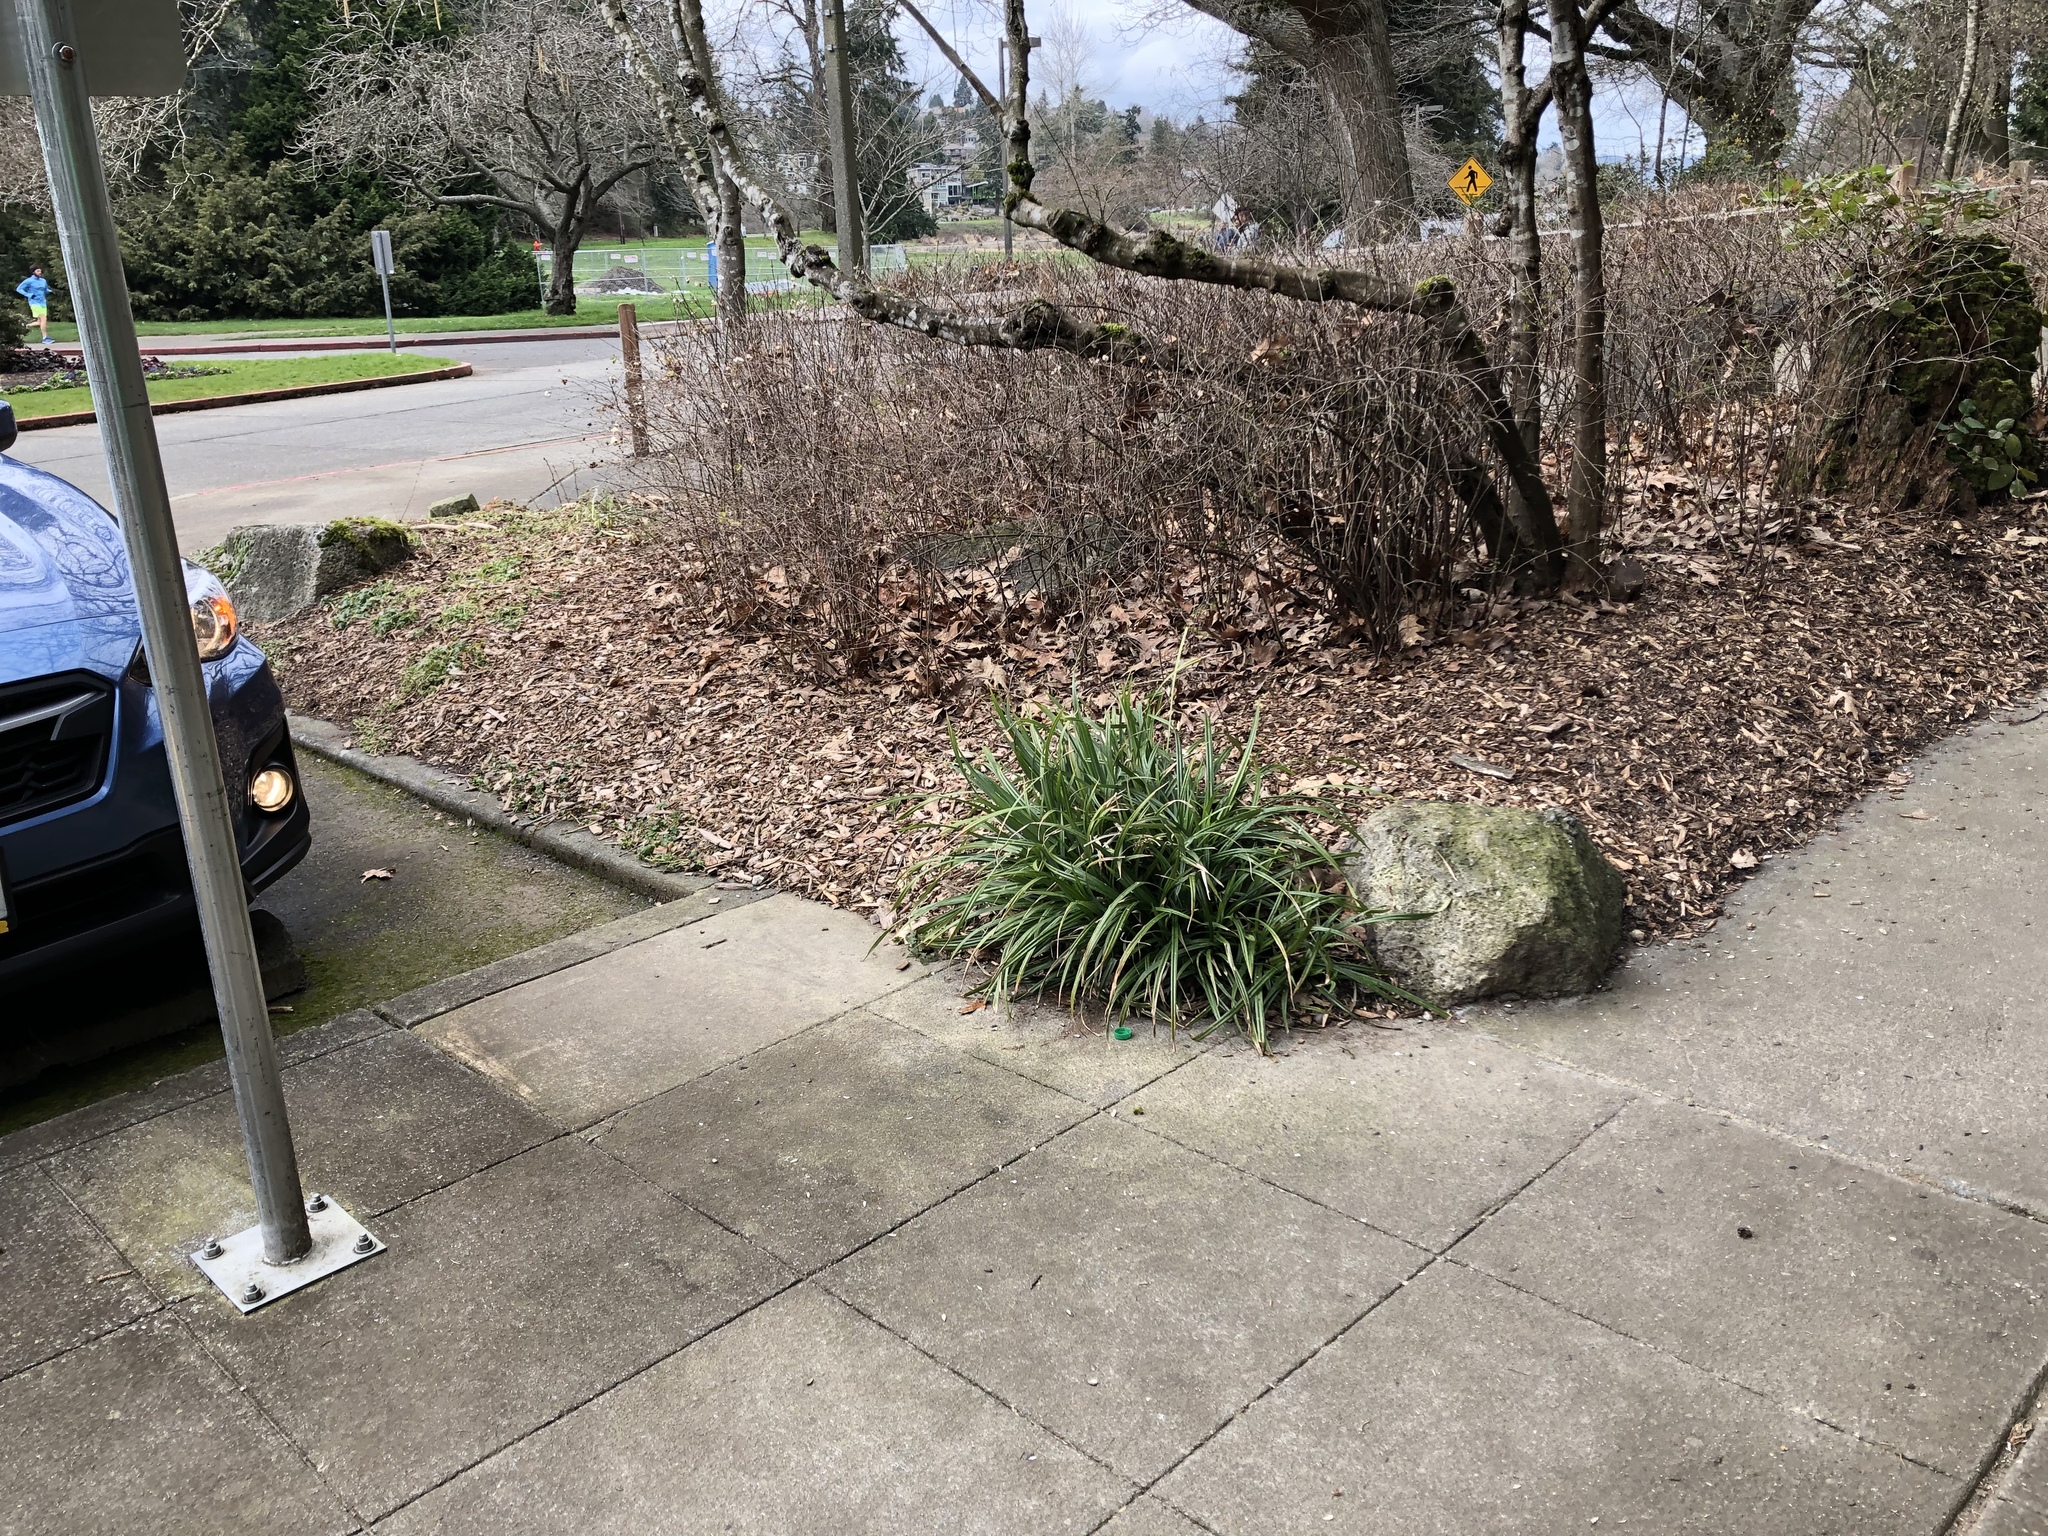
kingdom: Plantae
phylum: Tracheophyta
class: Liliopsida
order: Poales
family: Cyperaceae
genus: Carex
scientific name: Carex pendula
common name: Pendulous sedge
